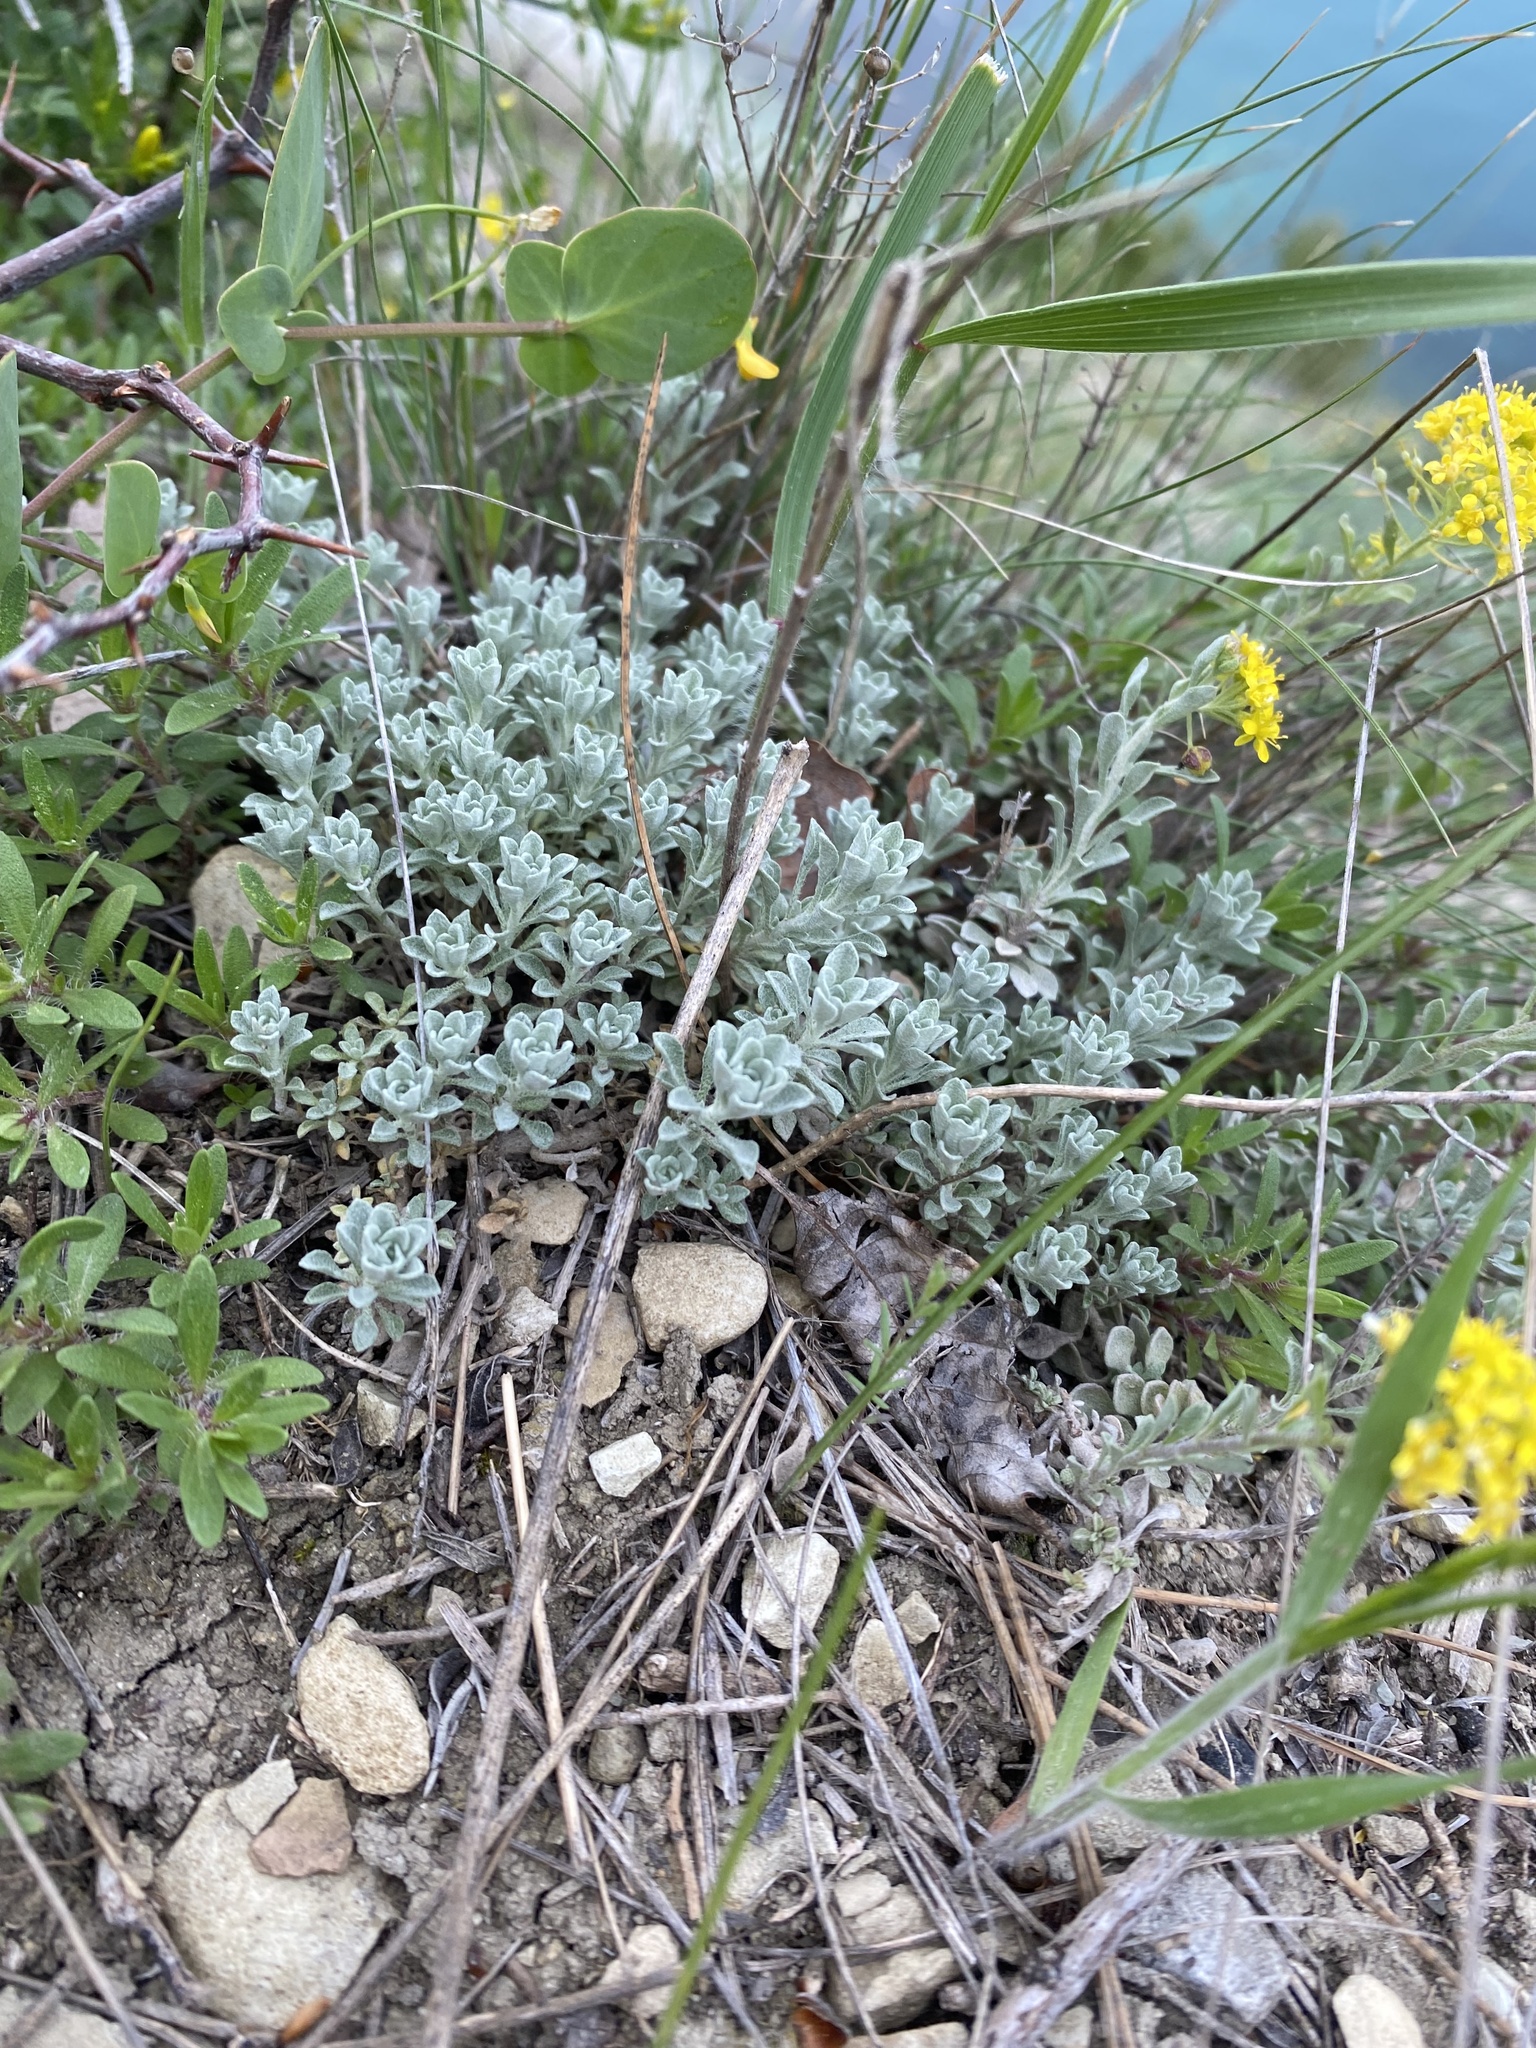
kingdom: Plantae
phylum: Tracheophyta
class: Magnoliopsida
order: Brassicales
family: Brassicaceae
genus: Odontarrhena
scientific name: Odontarrhena obtusifolia
